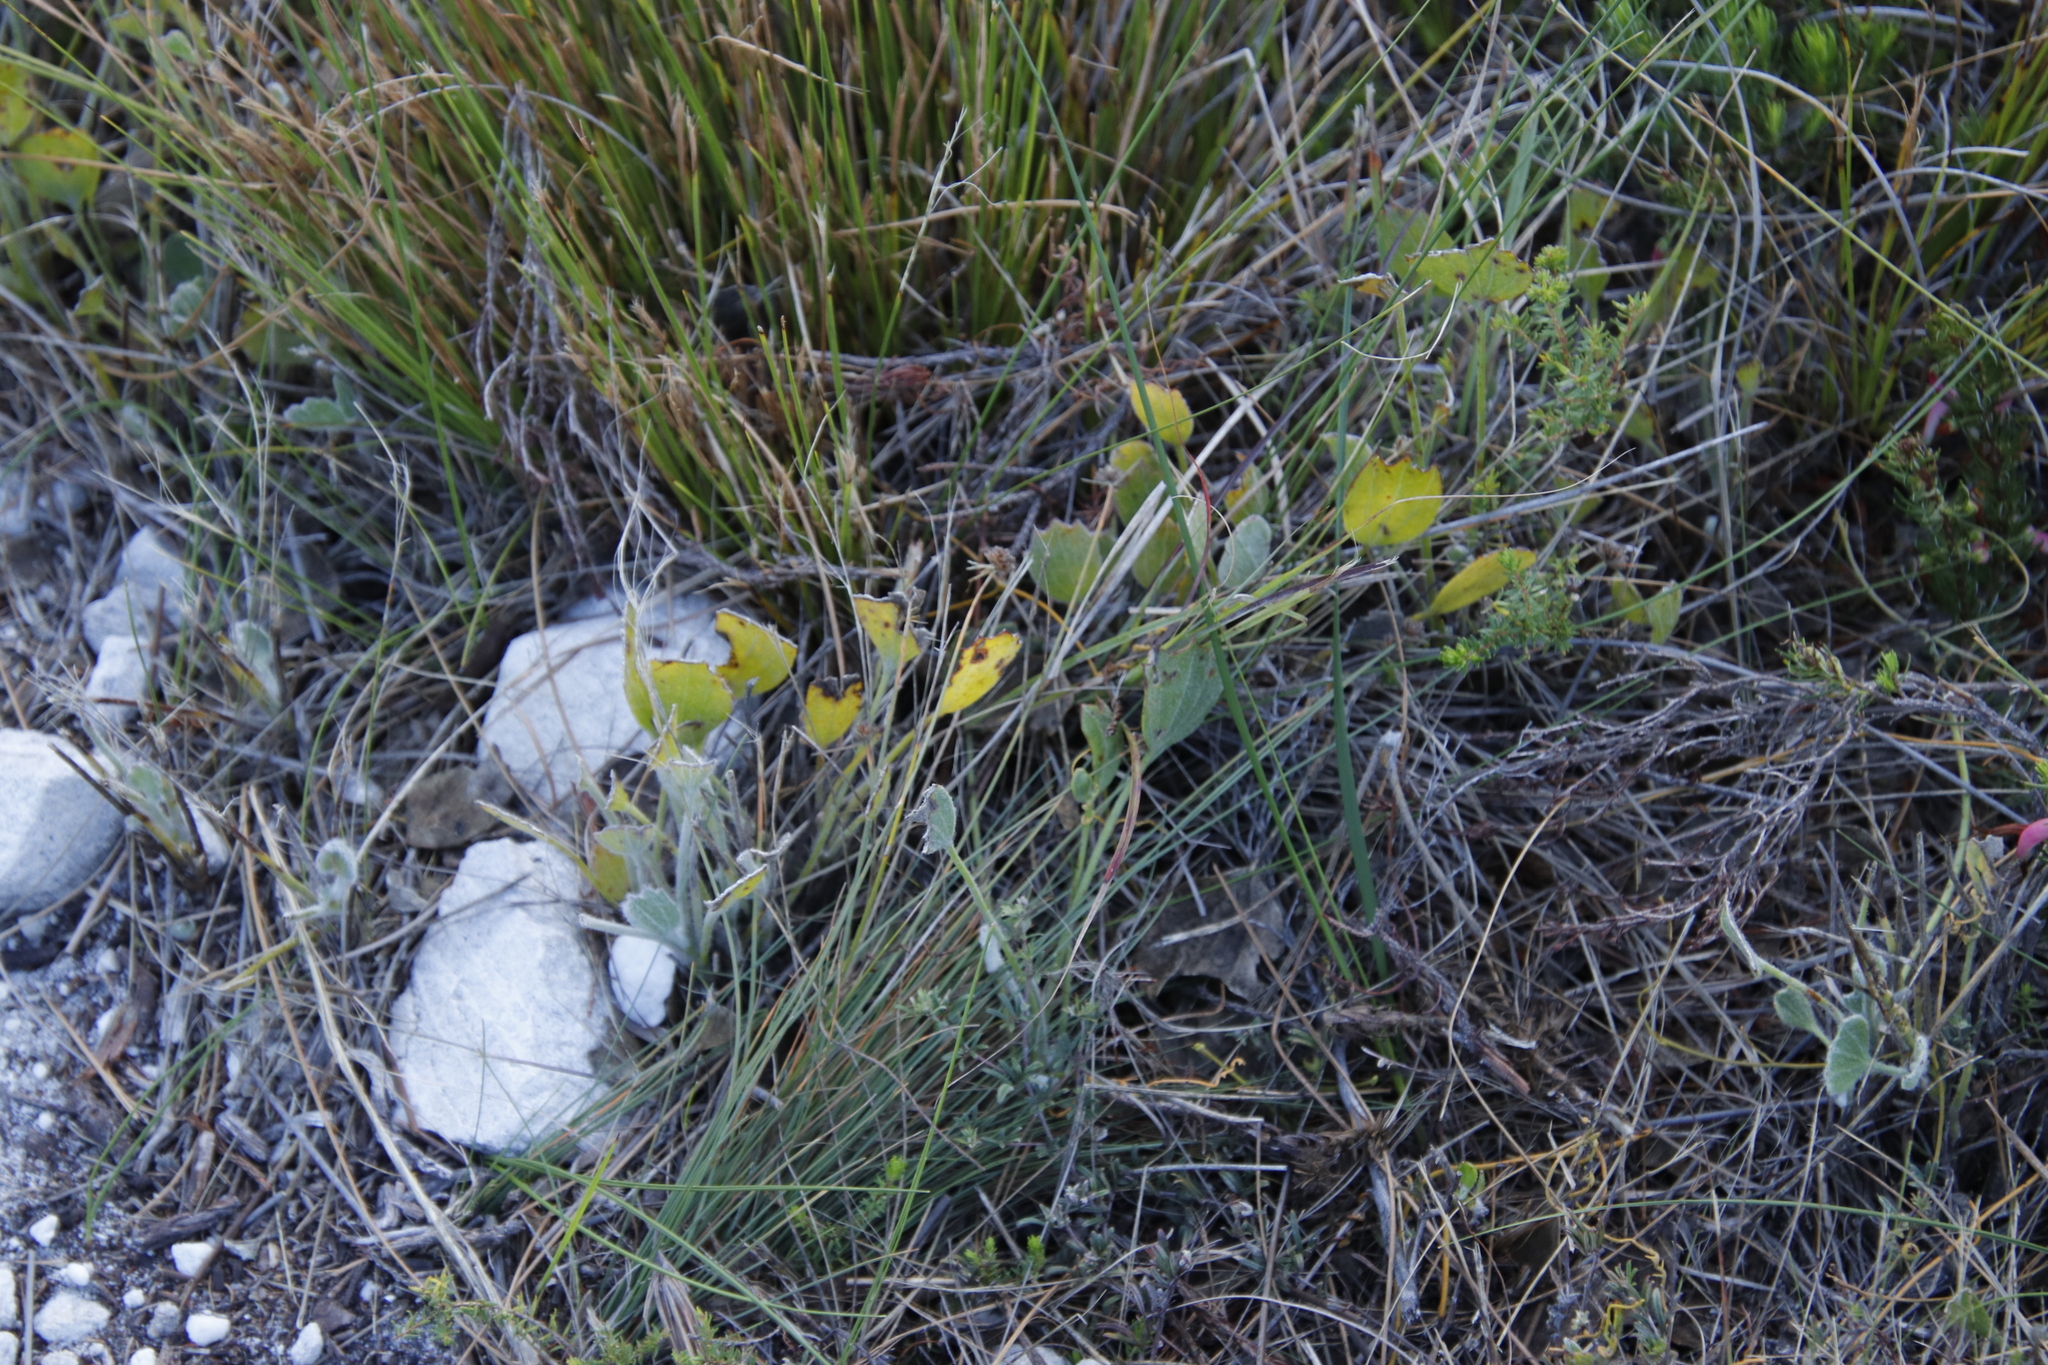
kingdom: Plantae
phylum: Tracheophyta
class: Magnoliopsida
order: Apiales
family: Apiaceae
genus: Centella
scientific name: Centella difformis
